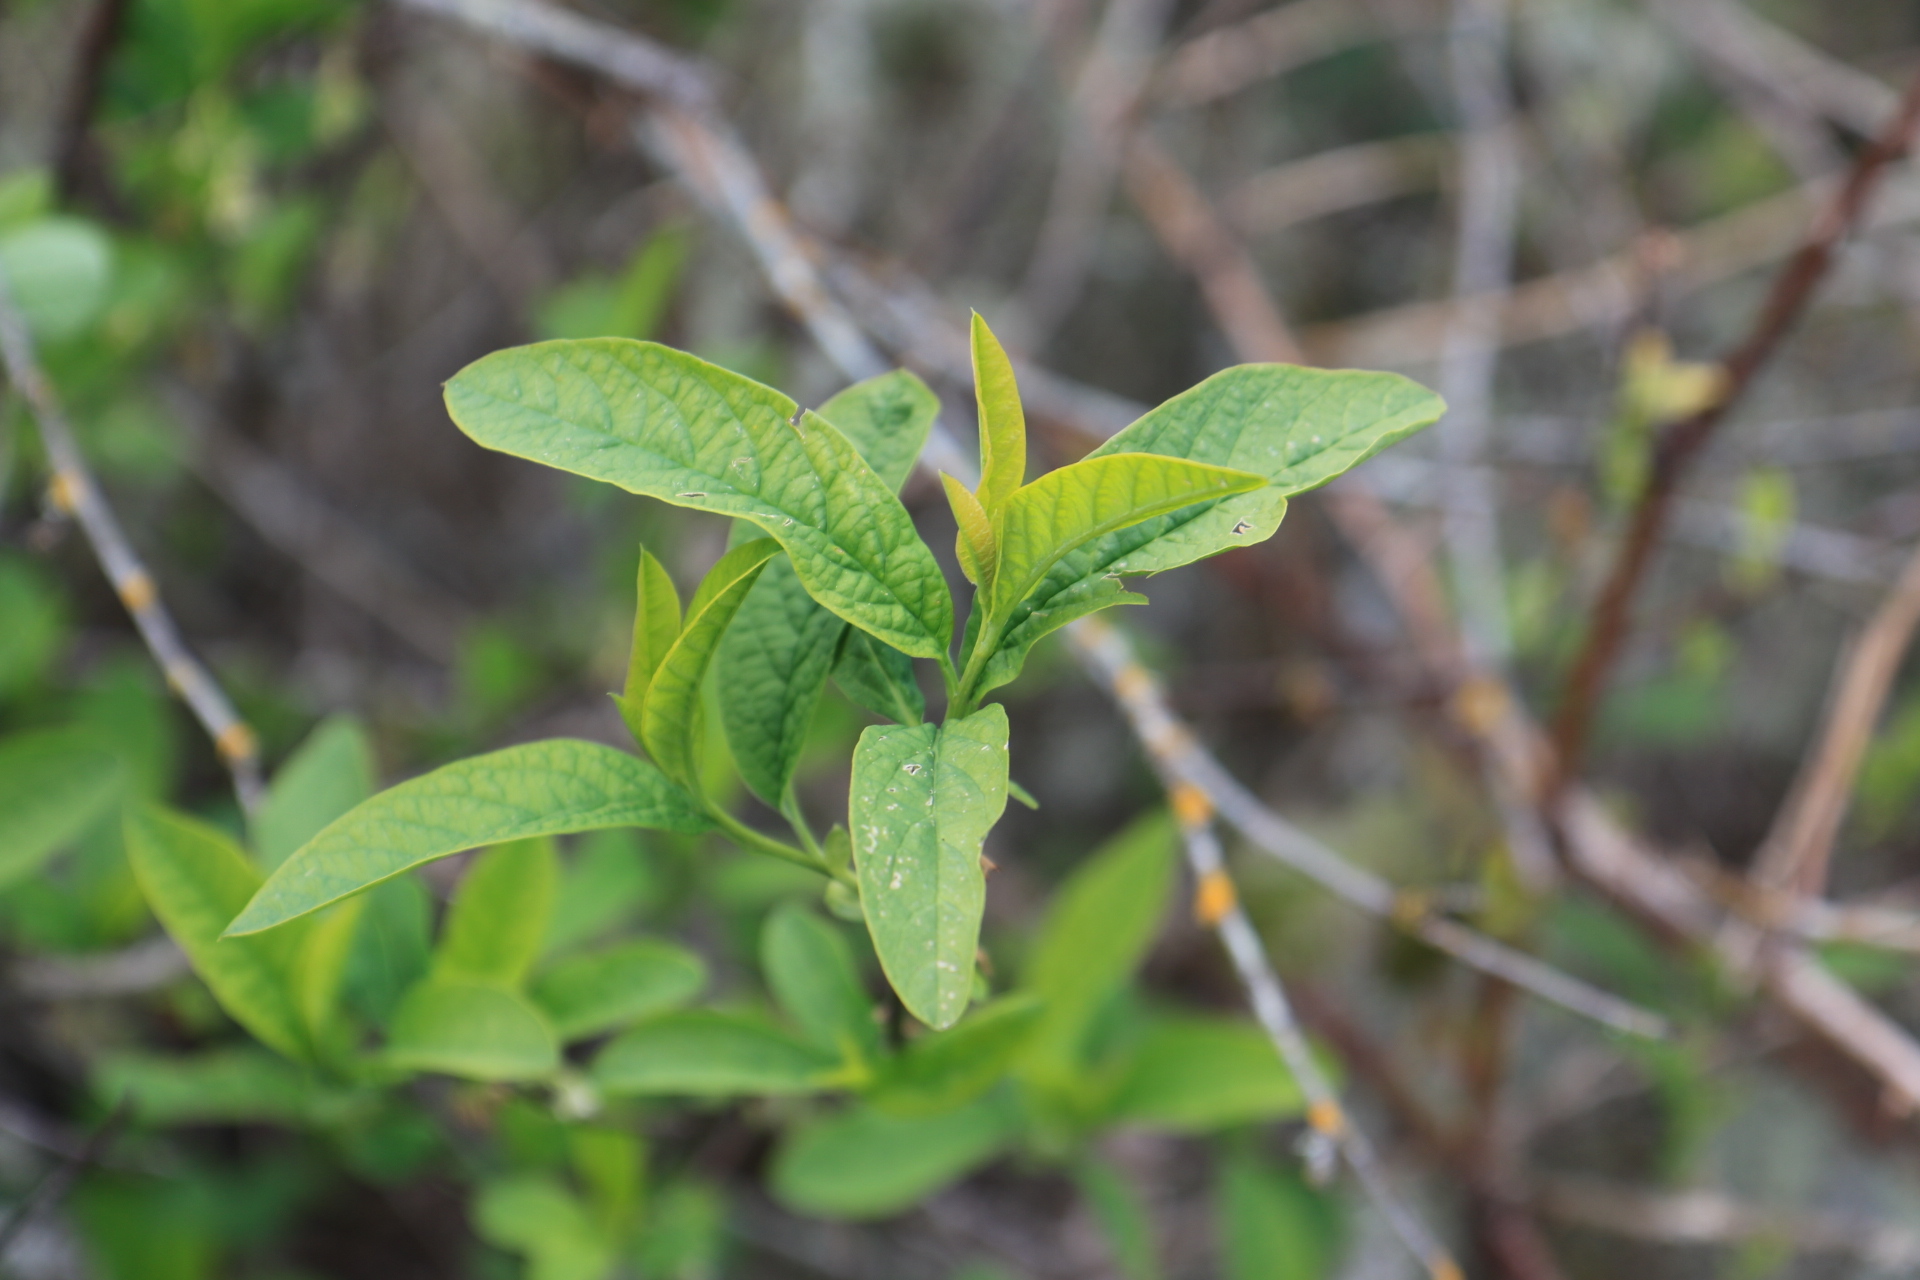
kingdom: Plantae
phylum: Tracheophyta
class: Magnoliopsida
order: Rosales
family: Rosaceae
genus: Oemleria
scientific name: Oemleria cerasiformis
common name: Osoberry
